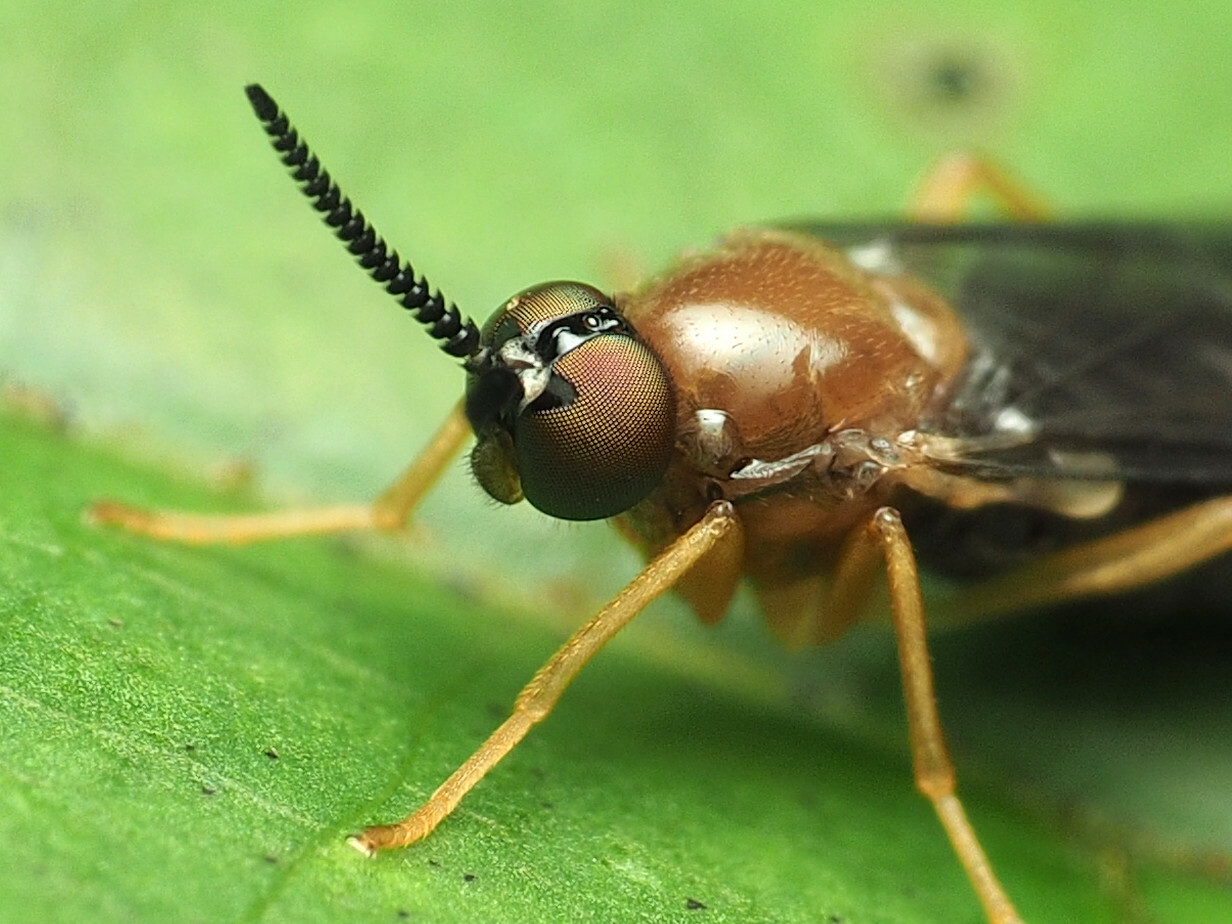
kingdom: Animalia
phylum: Arthropoda
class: Insecta
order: Diptera
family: Xylophagidae
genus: Rachicerus
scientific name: Rachicerus fulvicollis
